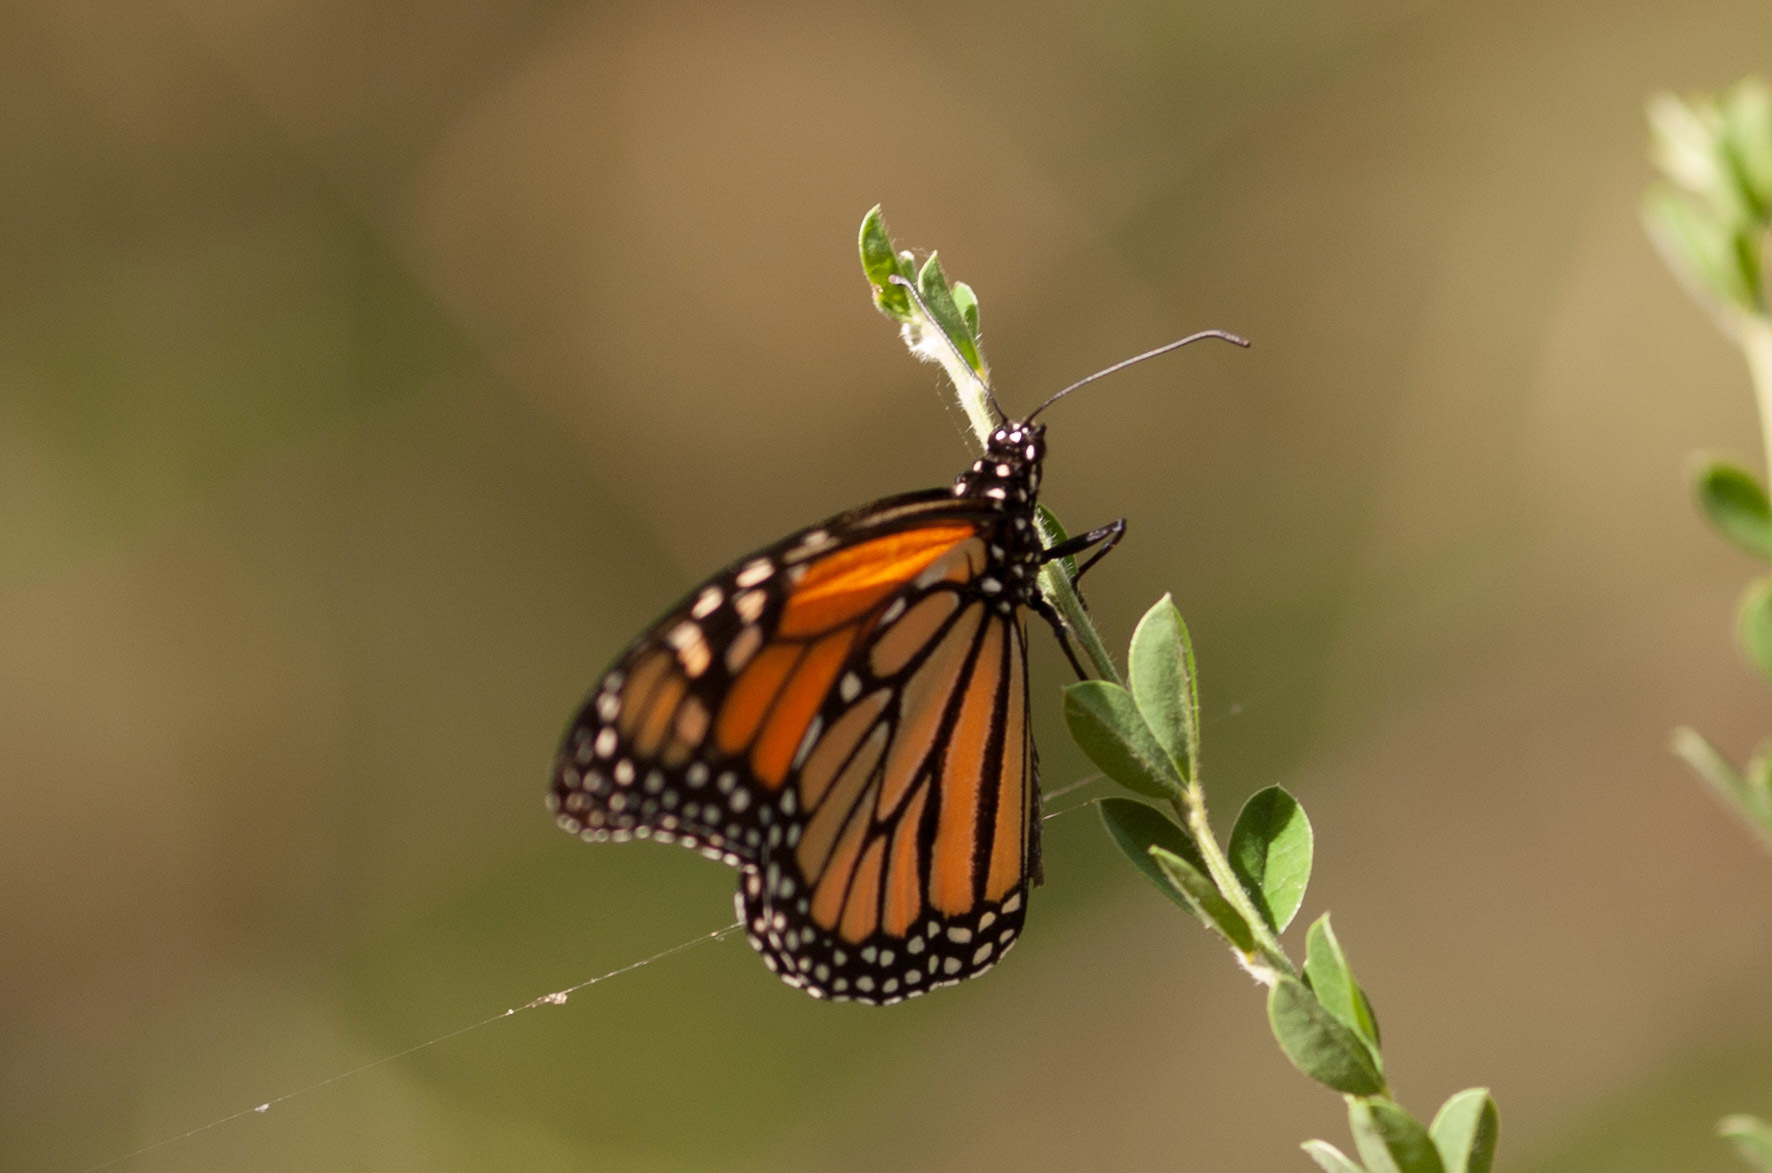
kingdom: Animalia
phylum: Arthropoda
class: Insecta
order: Lepidoptera
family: Nymphalidae
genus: Danaus
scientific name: Danaus plexippus
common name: Monarch
